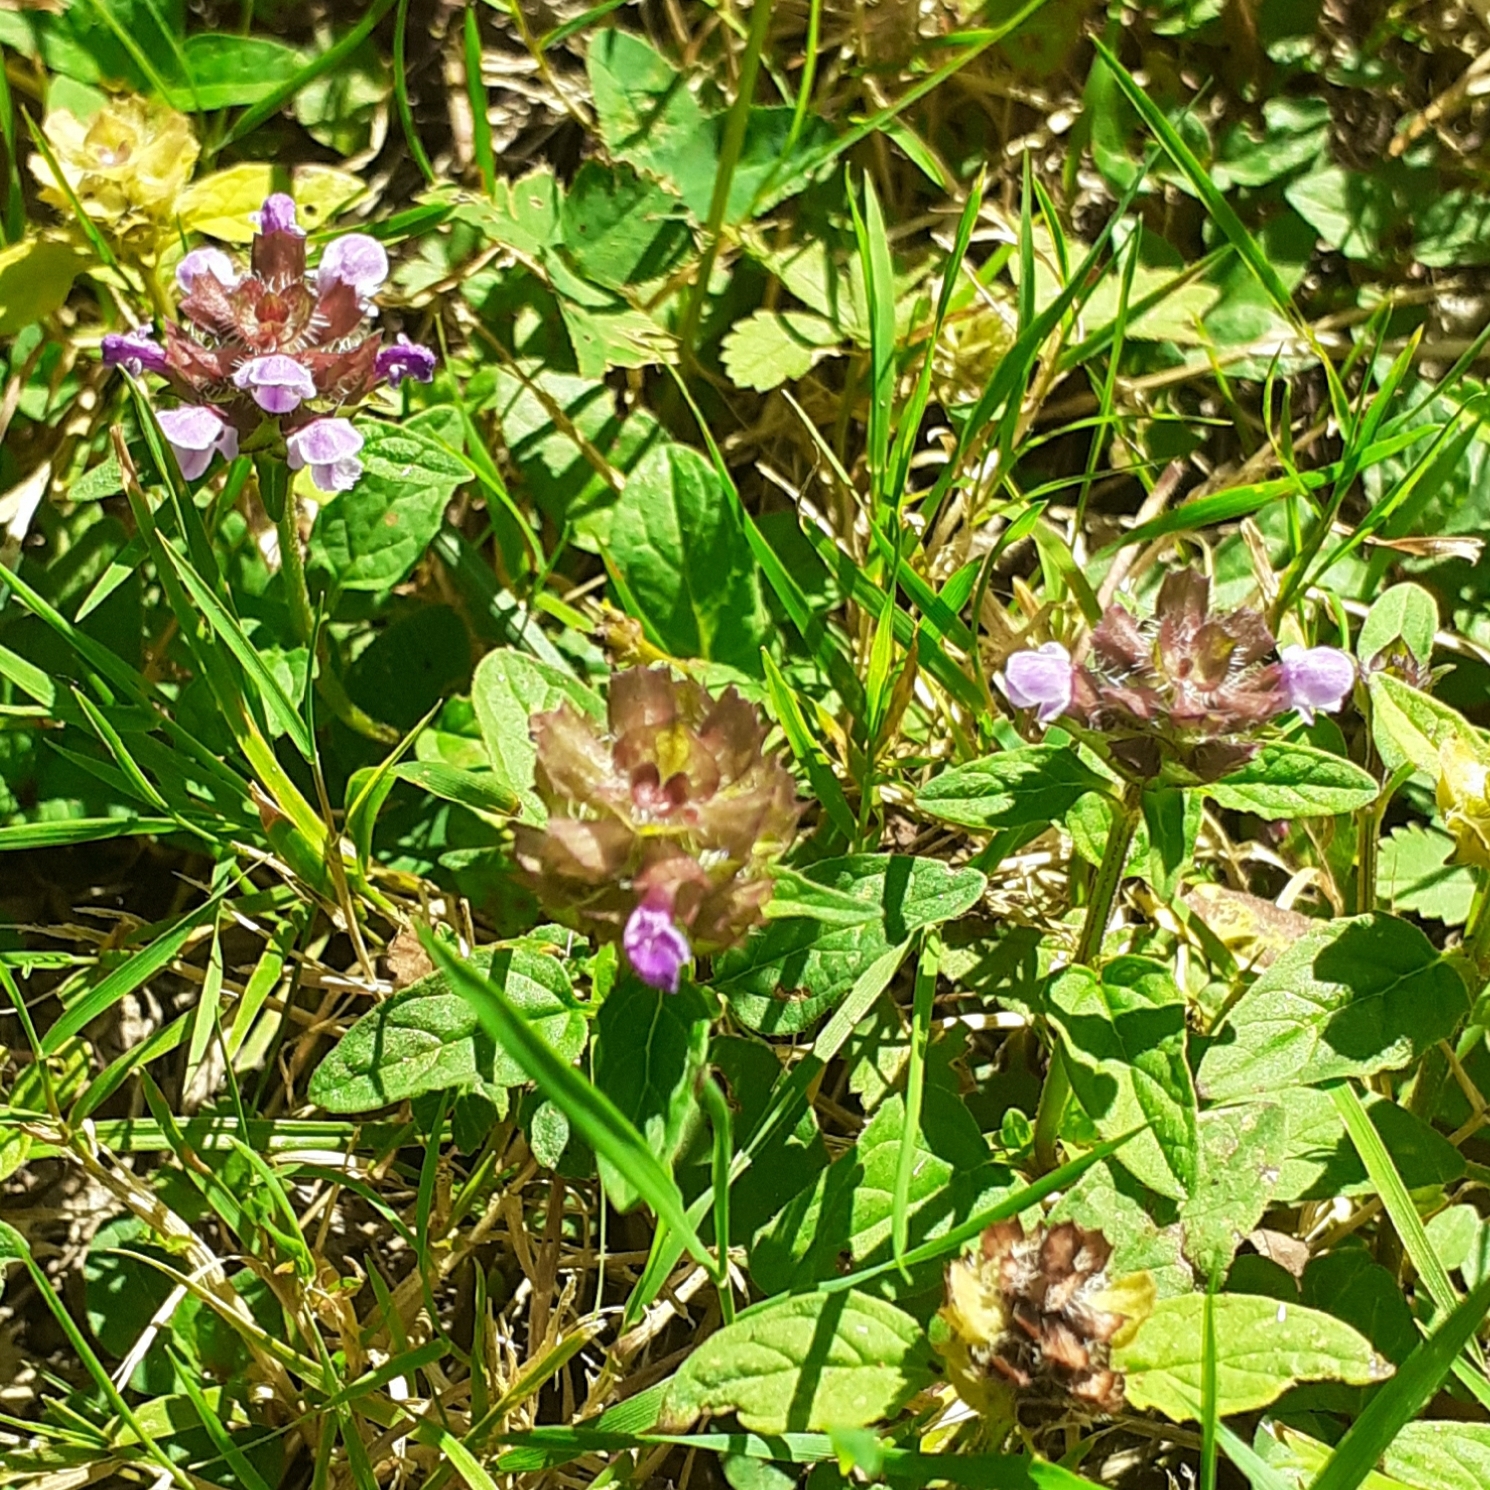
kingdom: Plantae
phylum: Tracheophyta
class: Magnoliopsida
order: Lamiales
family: Lamiaceae
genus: Prunella
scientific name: Prunella vulgaris
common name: Heal-all
